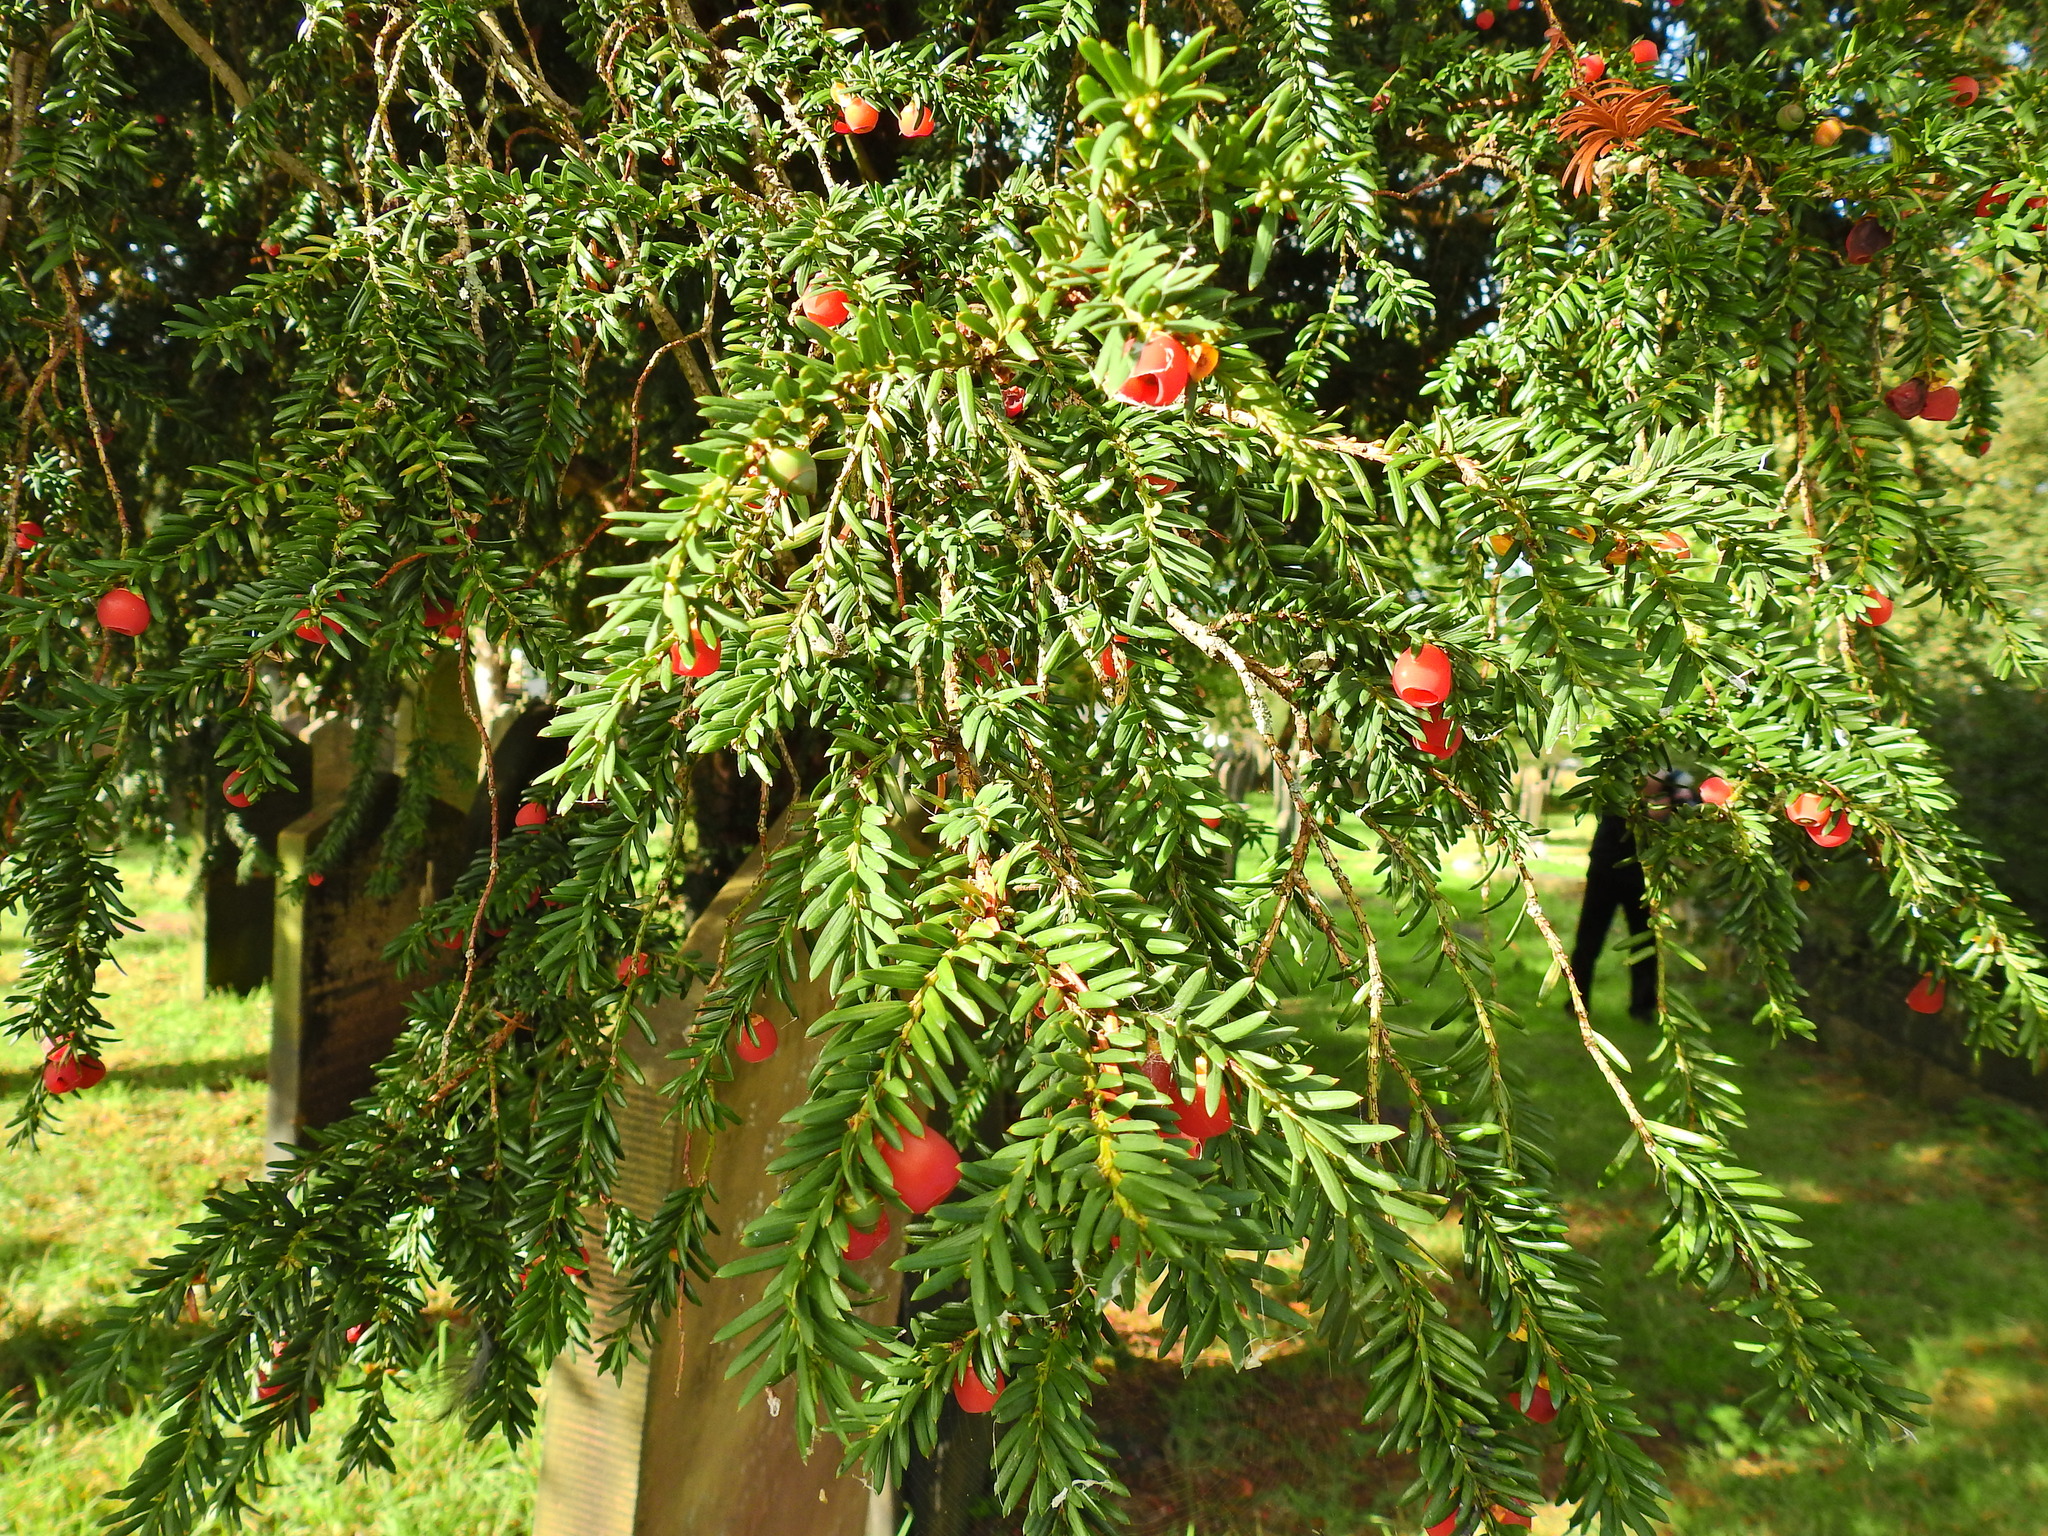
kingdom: Plantae
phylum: Tracheophyta
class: Pinopsida
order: Pinales
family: Taxaceae
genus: Taxus
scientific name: Taxus baccata
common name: Yew
